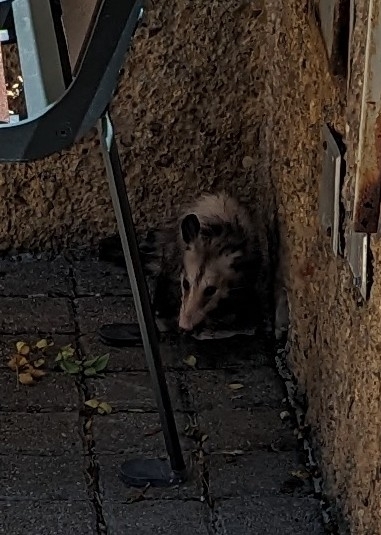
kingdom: Animalia
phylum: Chordata
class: Mammalia
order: Didelphimorphia
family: Didelphidae
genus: Didelphis
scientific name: Didelphis virginiana
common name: Virginia opossum
